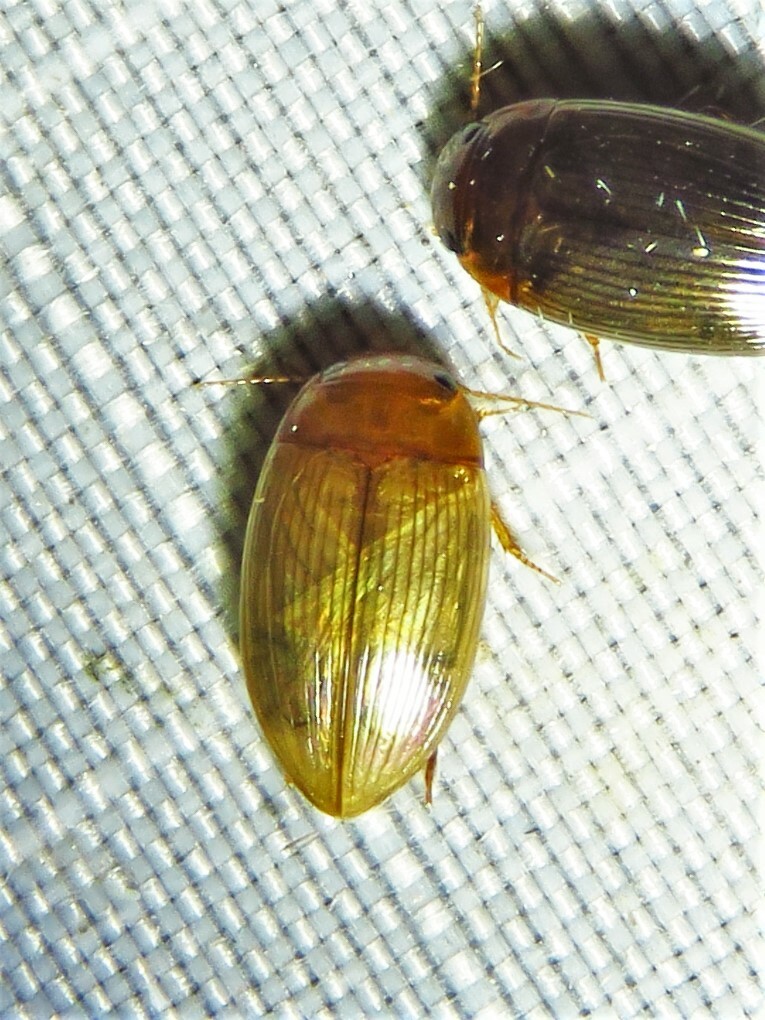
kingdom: Animalia
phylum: Arthropoda
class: Insecta
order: Coleoptera
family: Dytiscidae
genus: Copelatus
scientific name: Copelatus glyphicus
